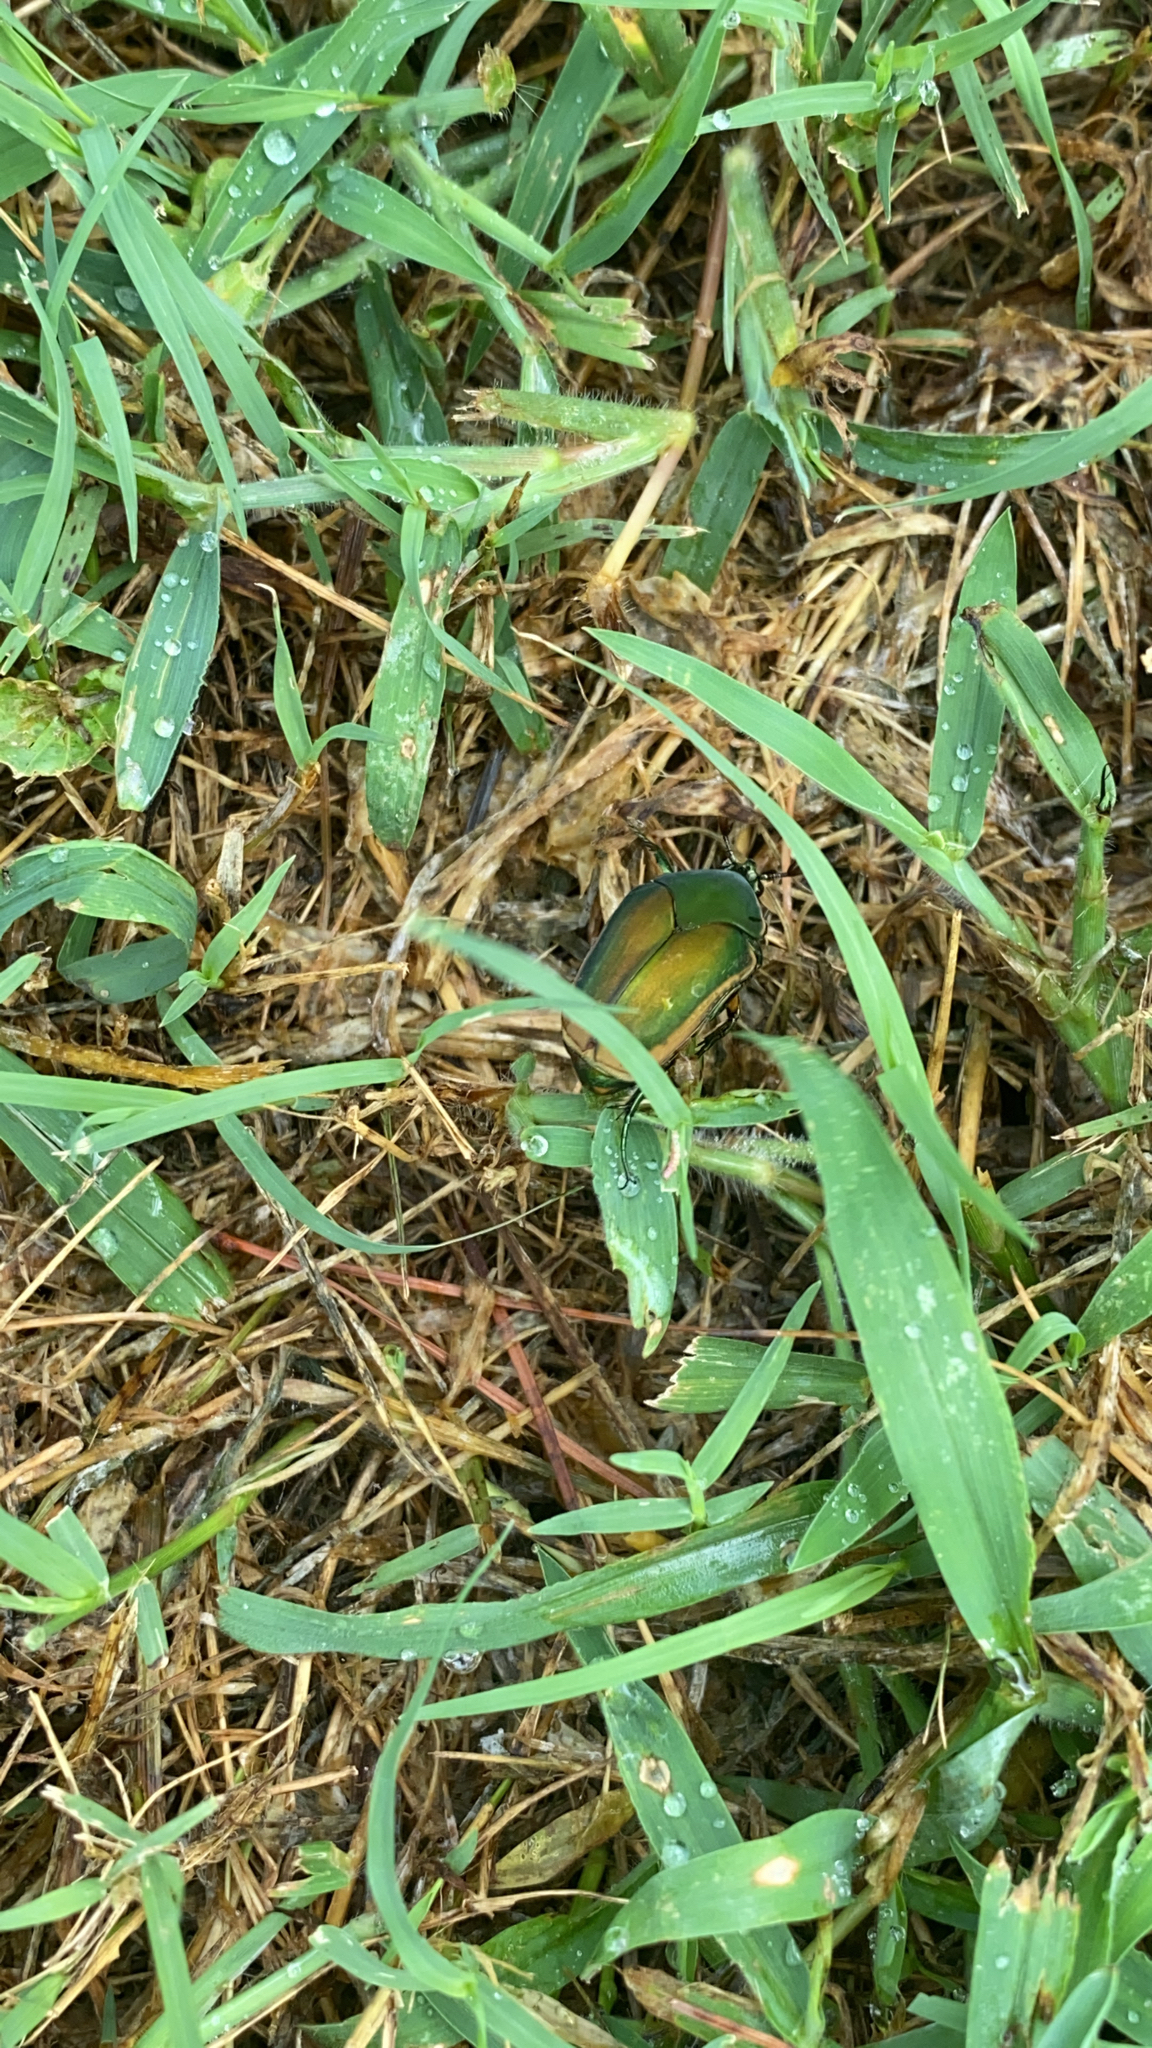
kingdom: Animalia
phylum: Arthropoda
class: Insecta
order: Coleoptera
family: Scarabaeidae
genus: Cotinis
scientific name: Cotinis nitida
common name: Common green june beetle
